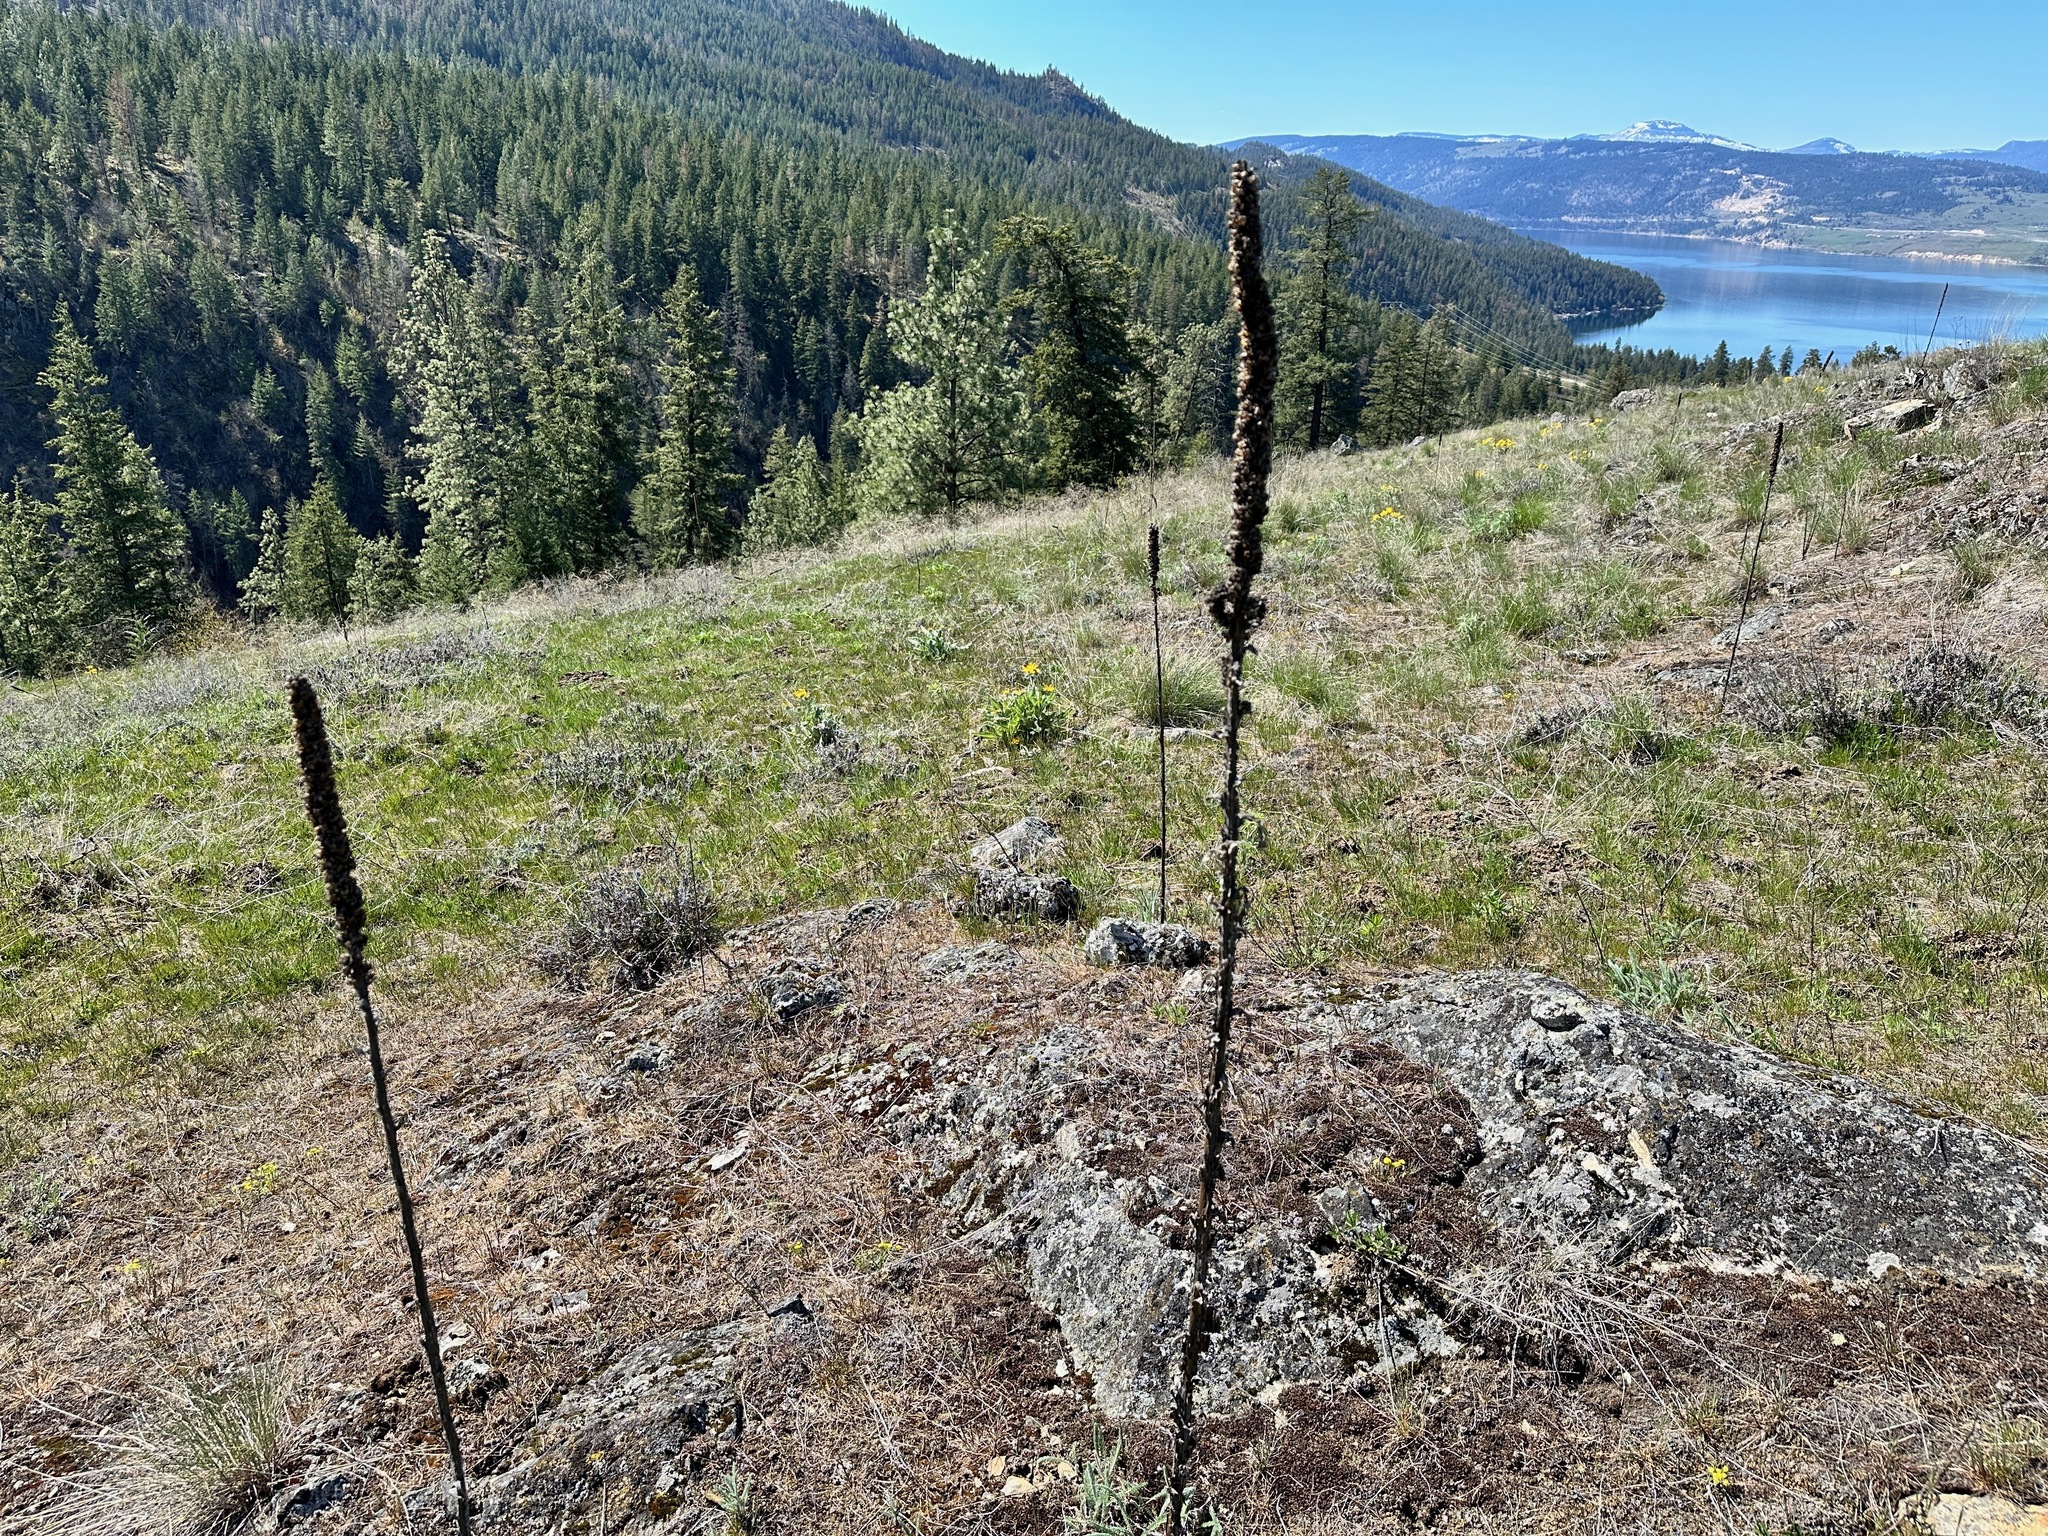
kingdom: Plantae
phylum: Tracheophyta
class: Magnoliopsida
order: Lamiales
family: Scrophulariaceae
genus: Verbascum
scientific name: Verbascum thapsus
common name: Common mullein
